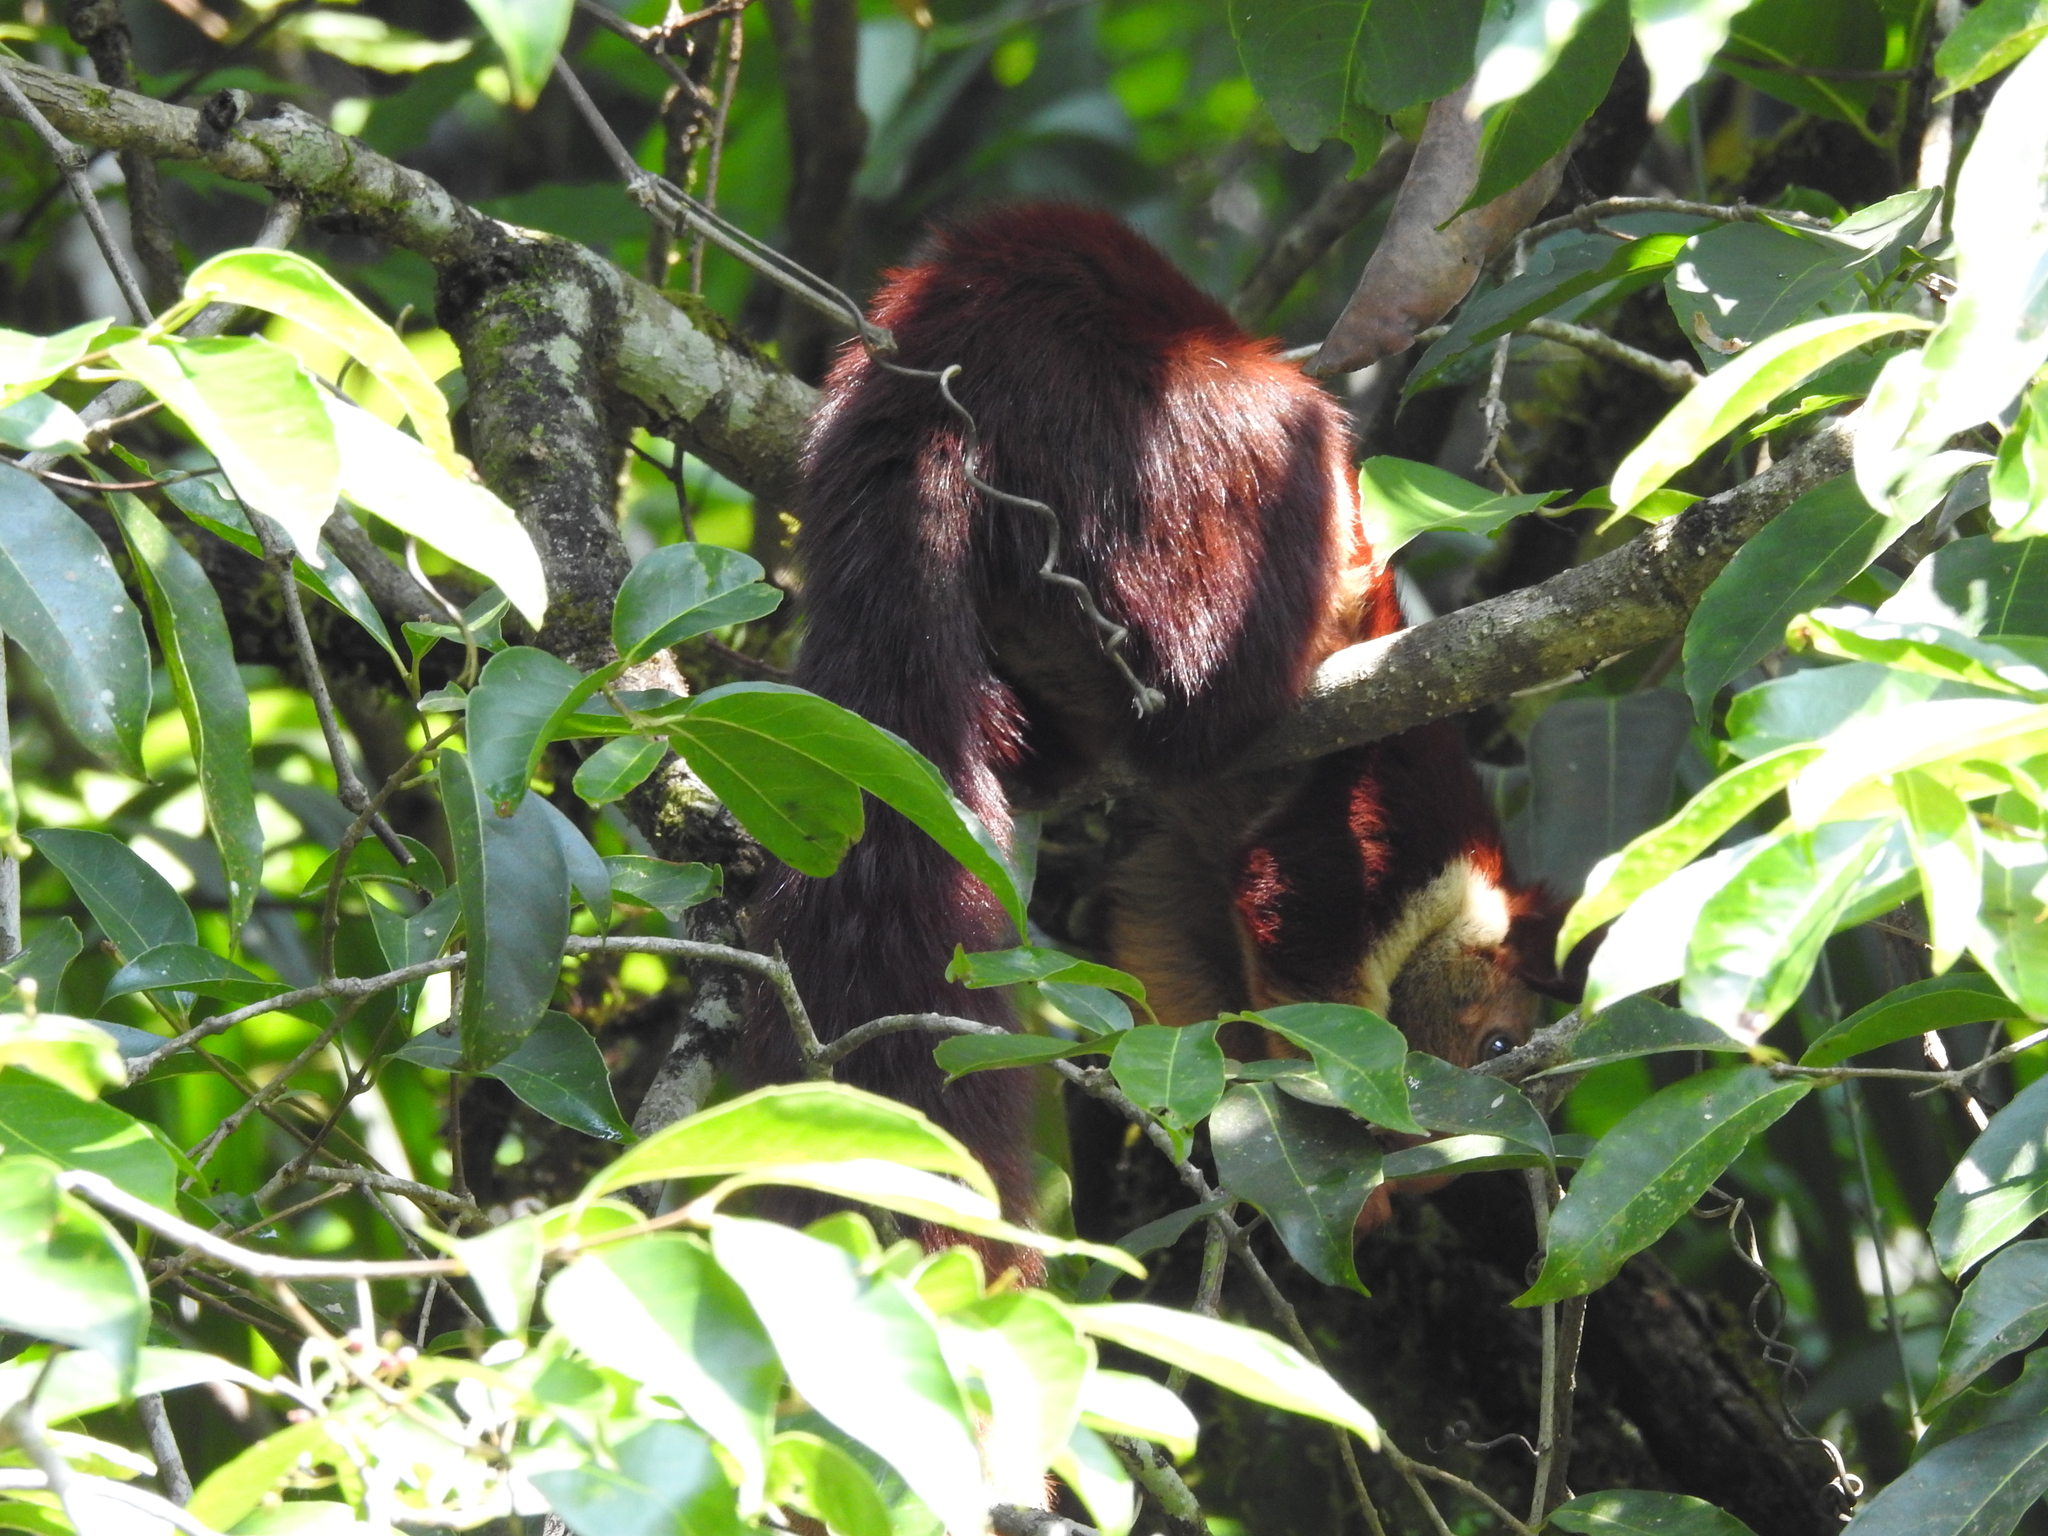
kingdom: Animalia
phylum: Chordata
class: Mammalia
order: Rodentia
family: Sciuridae
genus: Ratufa
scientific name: Ratufa indica
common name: Indian giant squirrel
